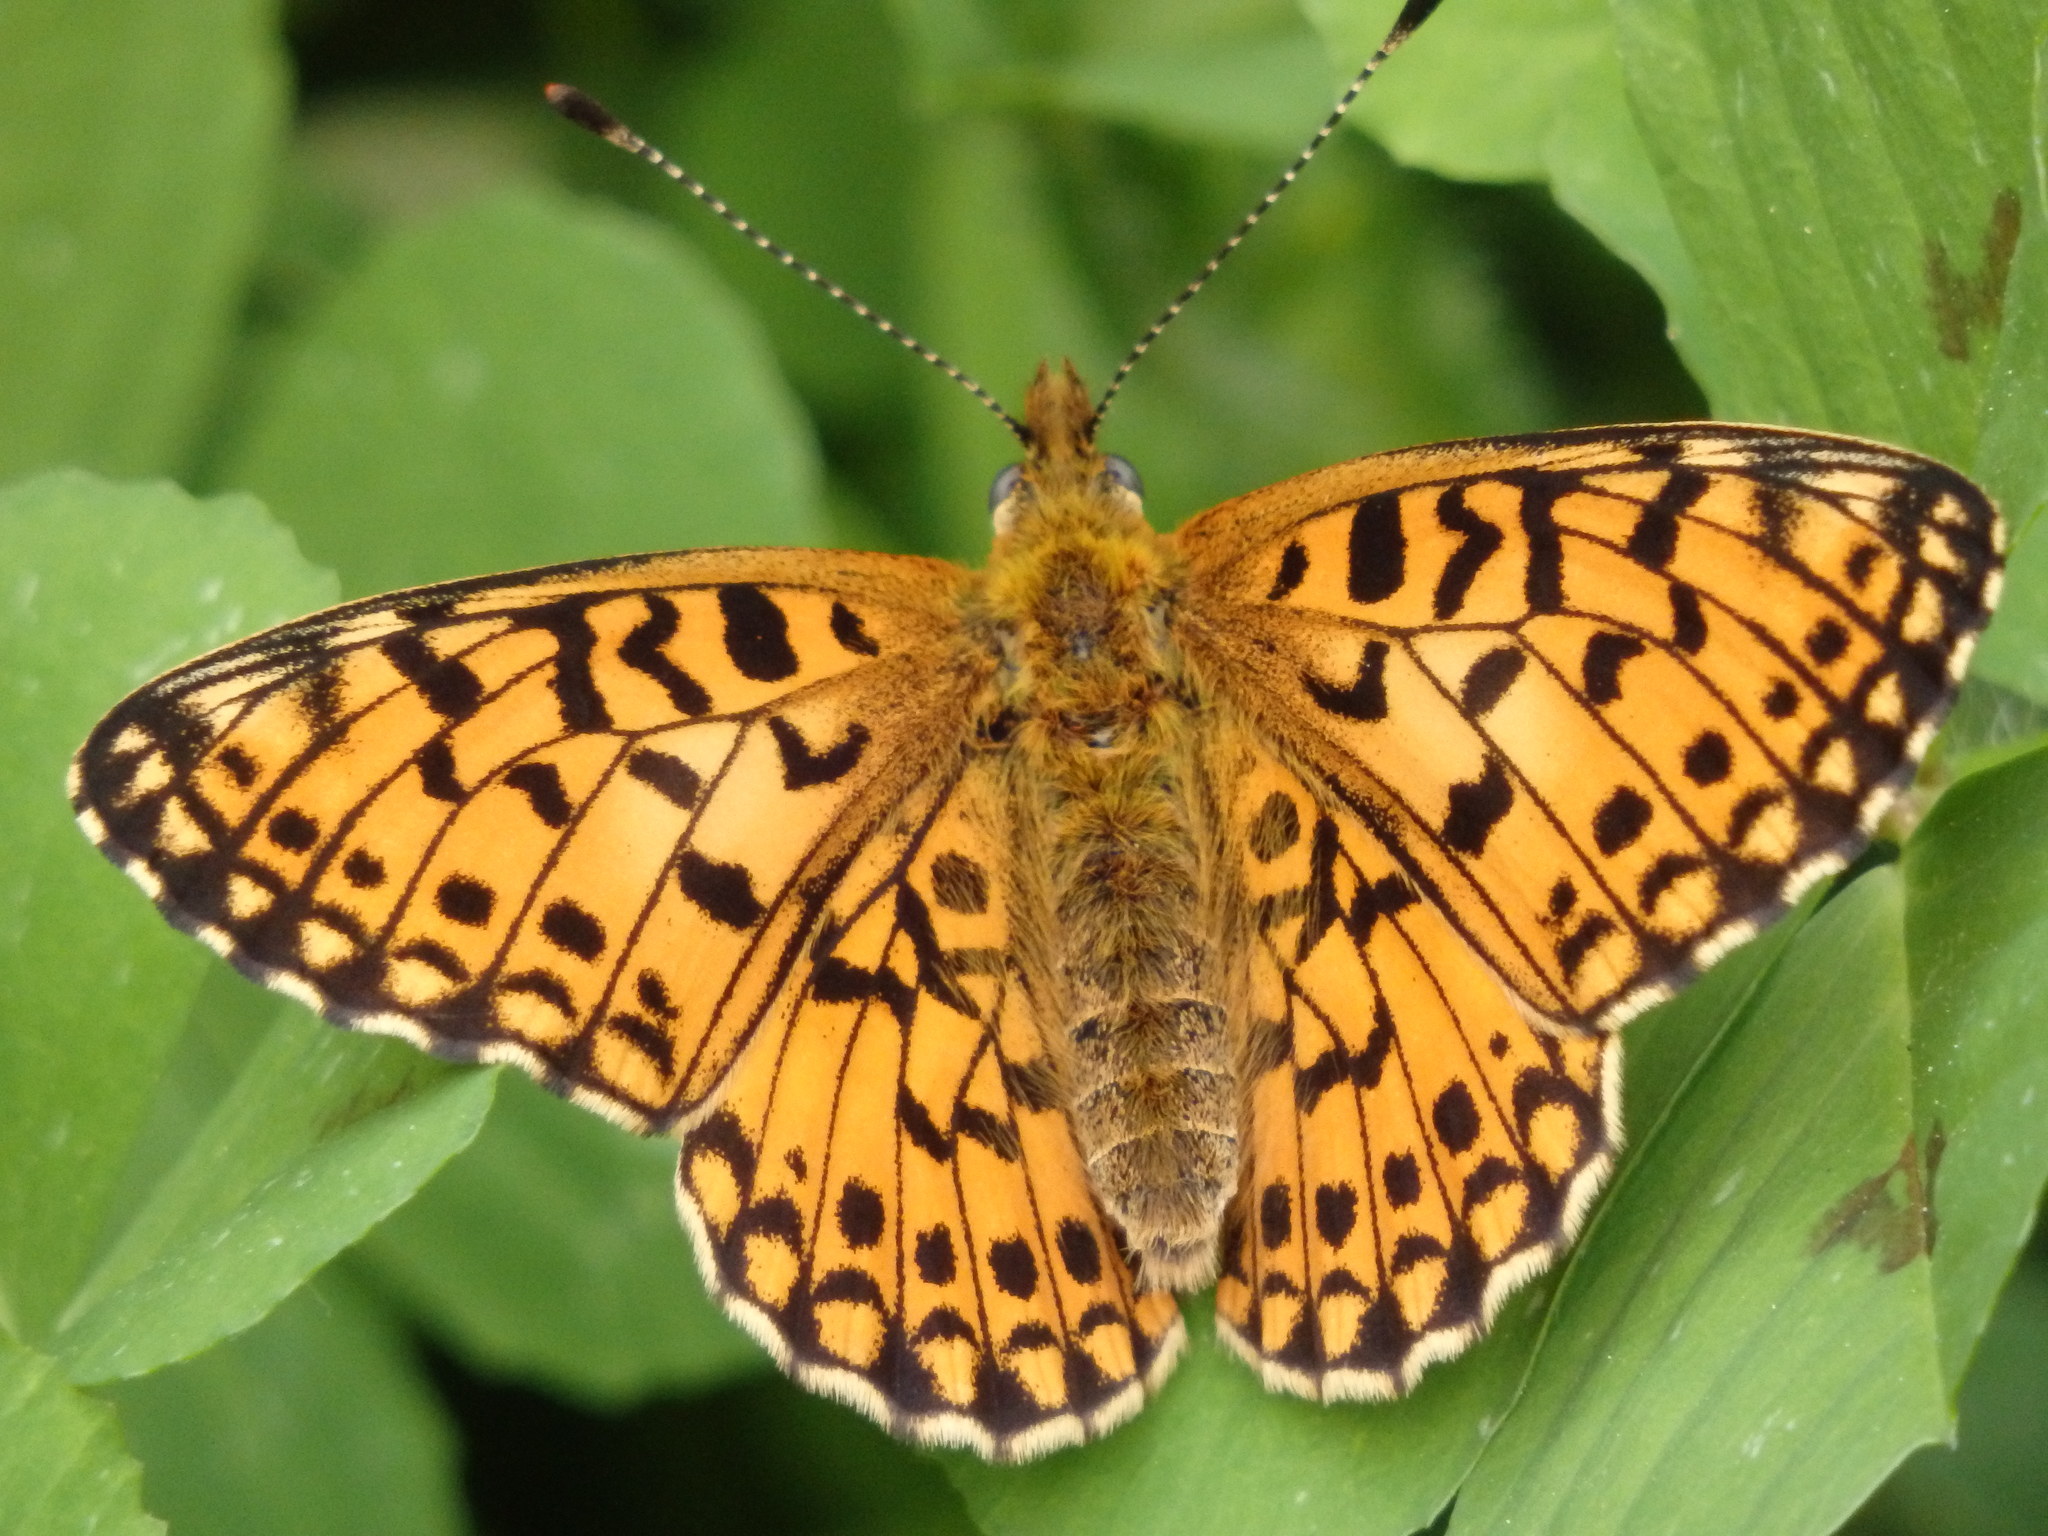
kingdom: Animalia
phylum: Arthropoda
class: Insecta
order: Lepidoptera
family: Nymphalidae
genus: Boloria
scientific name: Boloria selene
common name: Small pearl-bordered fritillary
